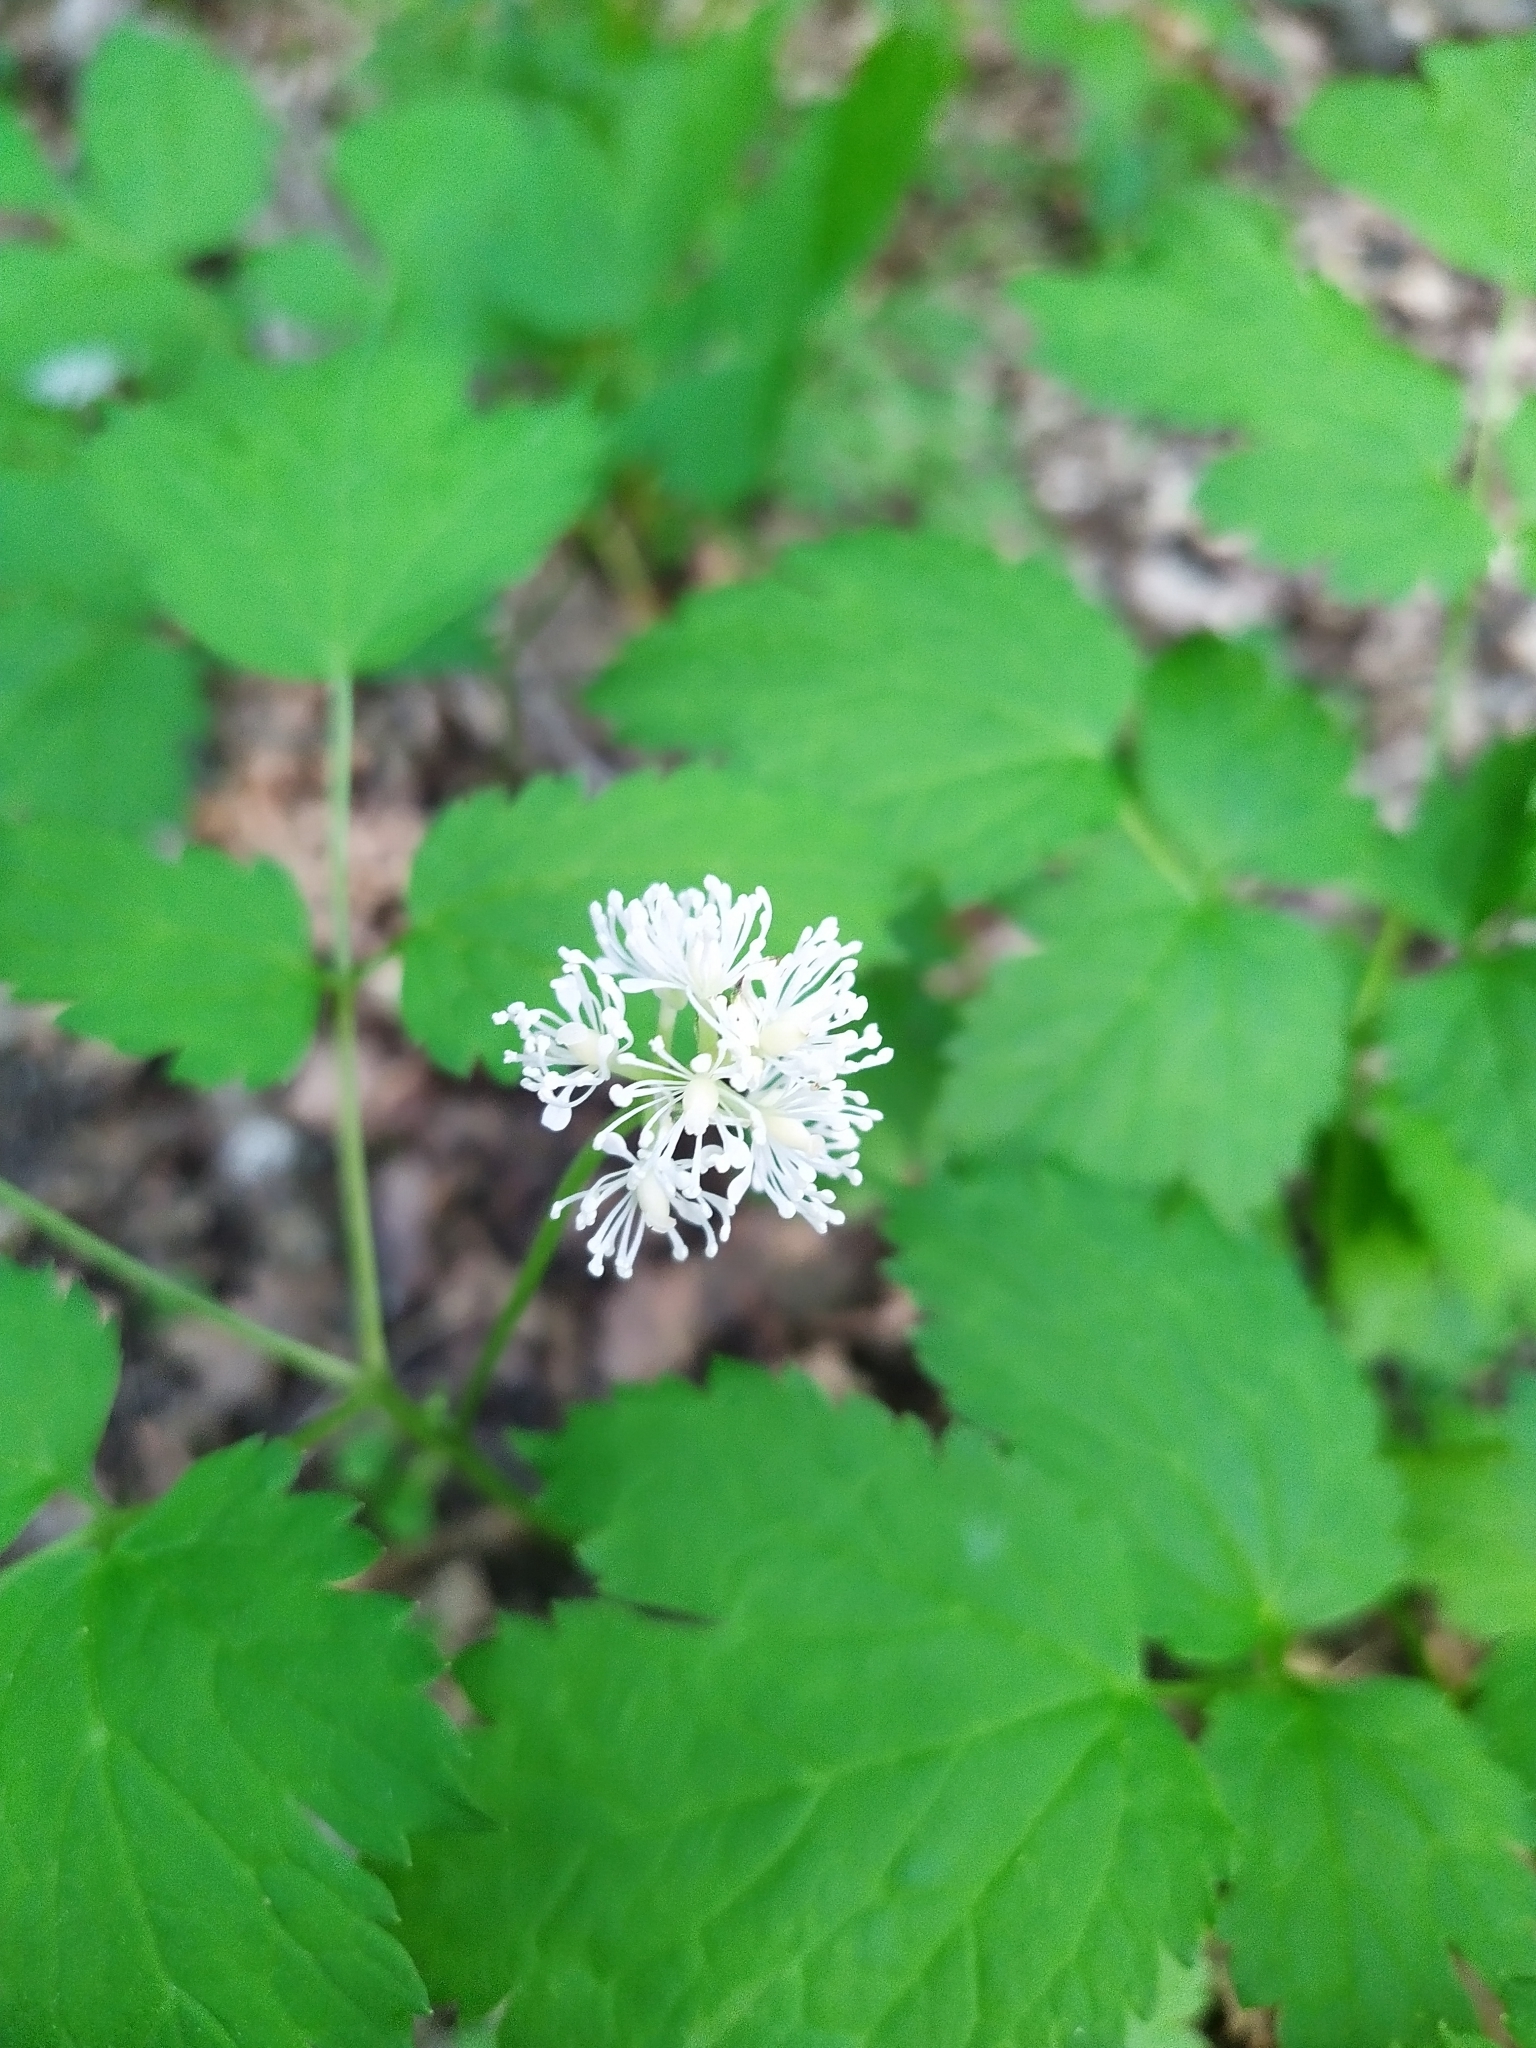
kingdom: Plantae
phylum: Tracheophyta
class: Magnoliopsida
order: Ranunculales
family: Ranunculaceae
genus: Actaea
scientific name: Actaea spicata
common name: Baneberry
